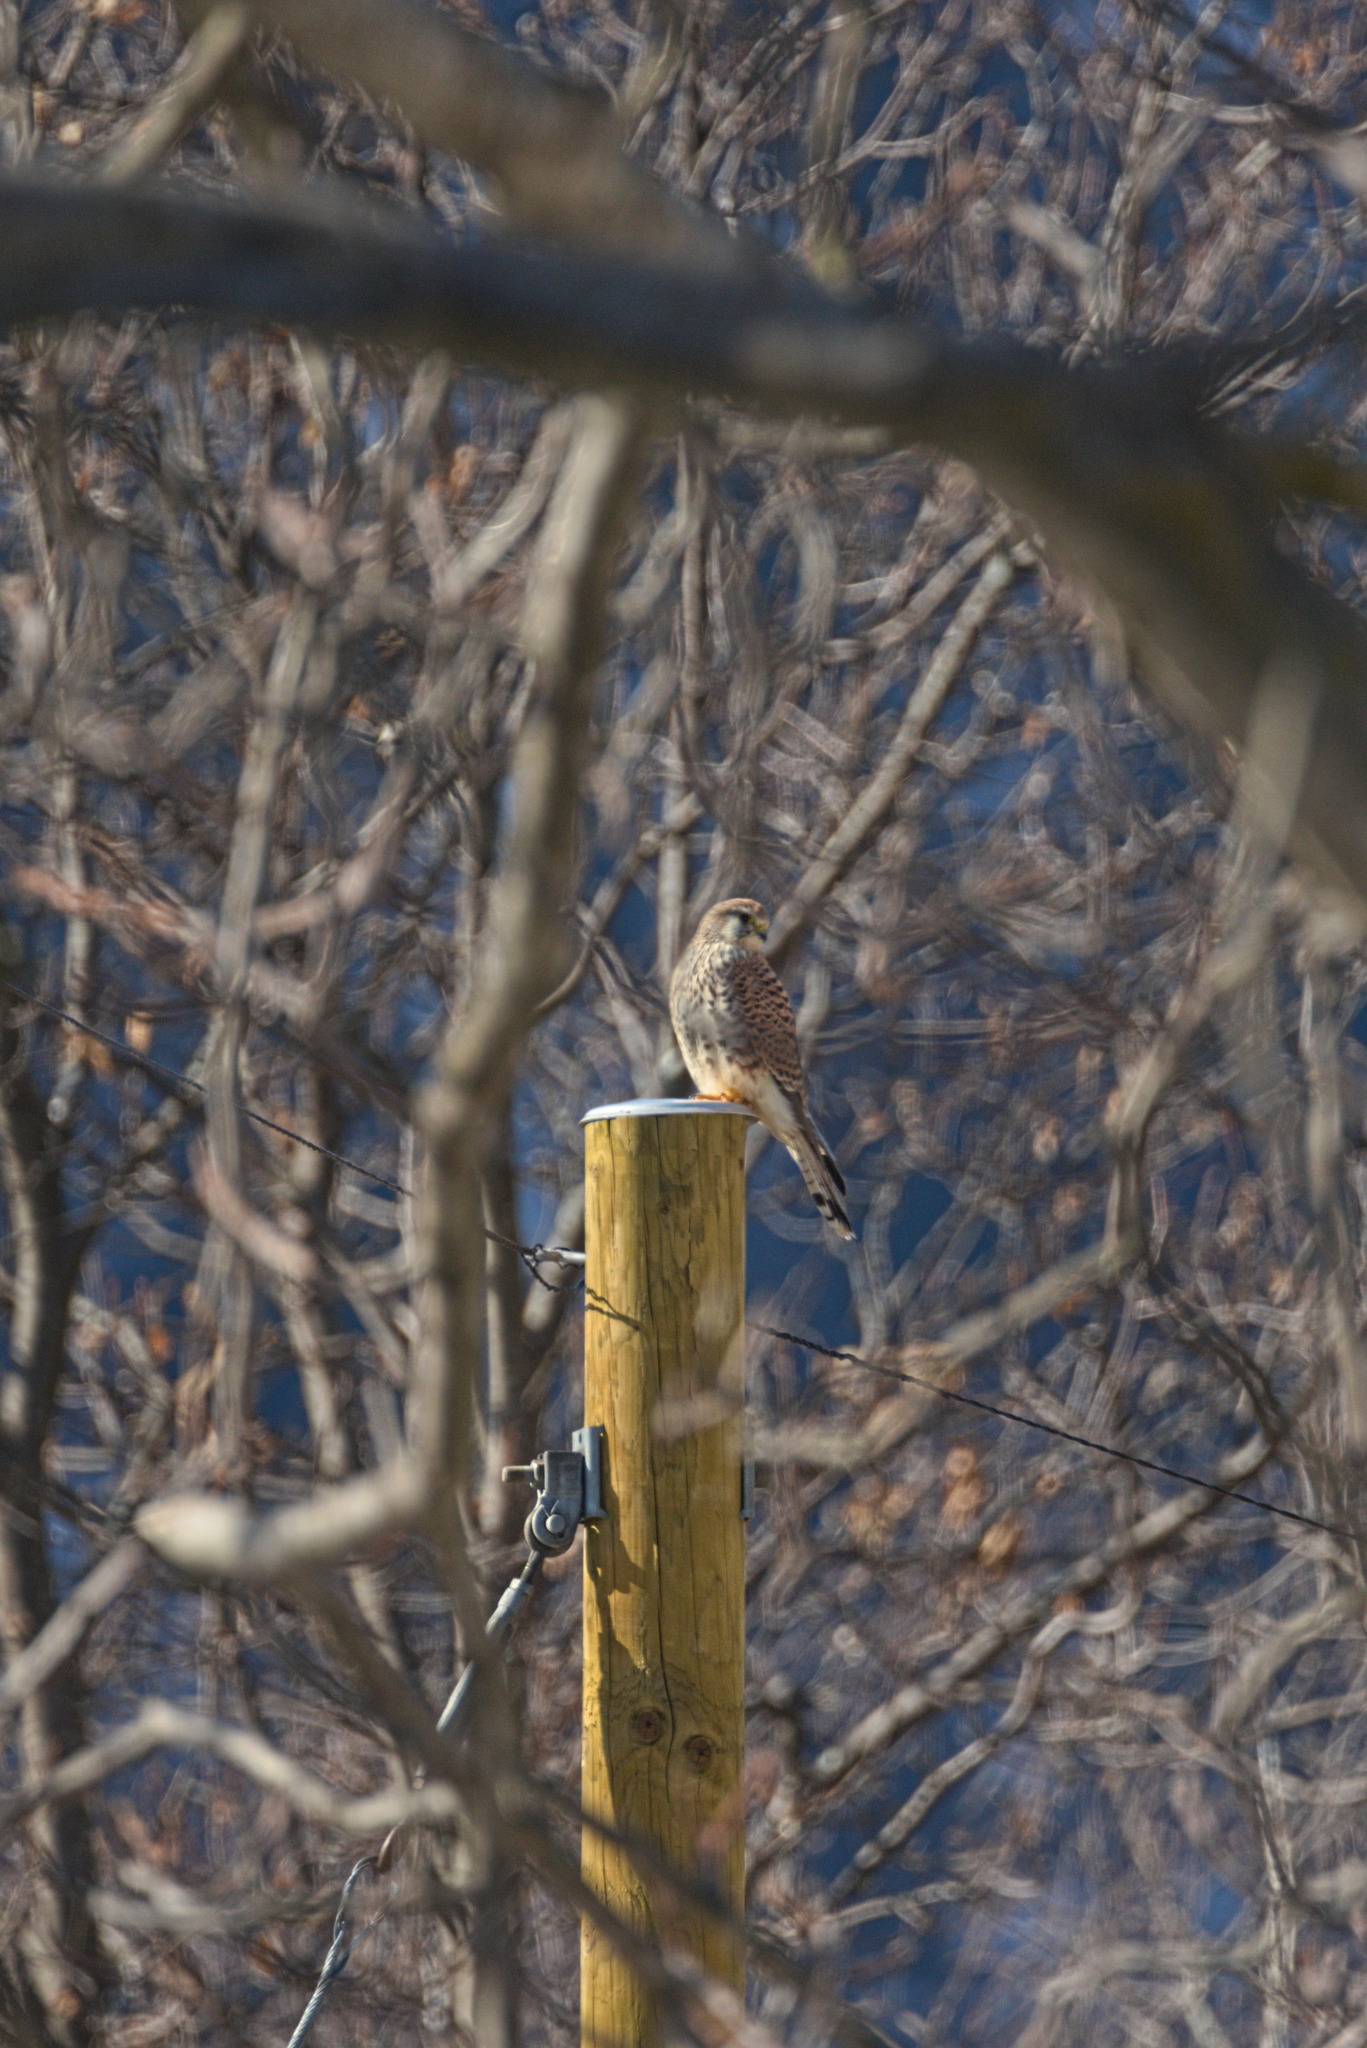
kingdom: Animalia
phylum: Chordata
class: Aves
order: Falconiformes
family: Falconidae
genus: Falco
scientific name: Falco tinnunculus
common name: Common kestrel
